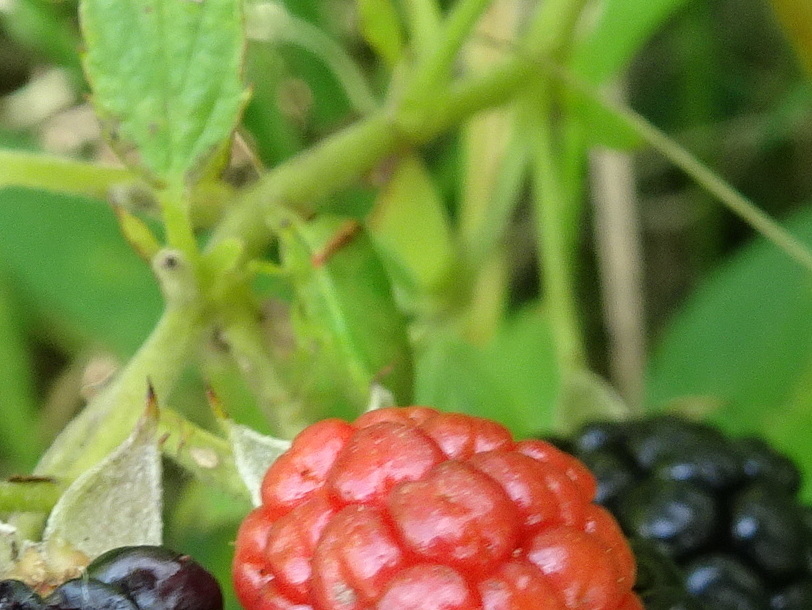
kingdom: Animalia
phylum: Arthropoda
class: Insecta
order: Hemiptera
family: Pentatomidae
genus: Thyanta
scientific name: Thyanta calceata
